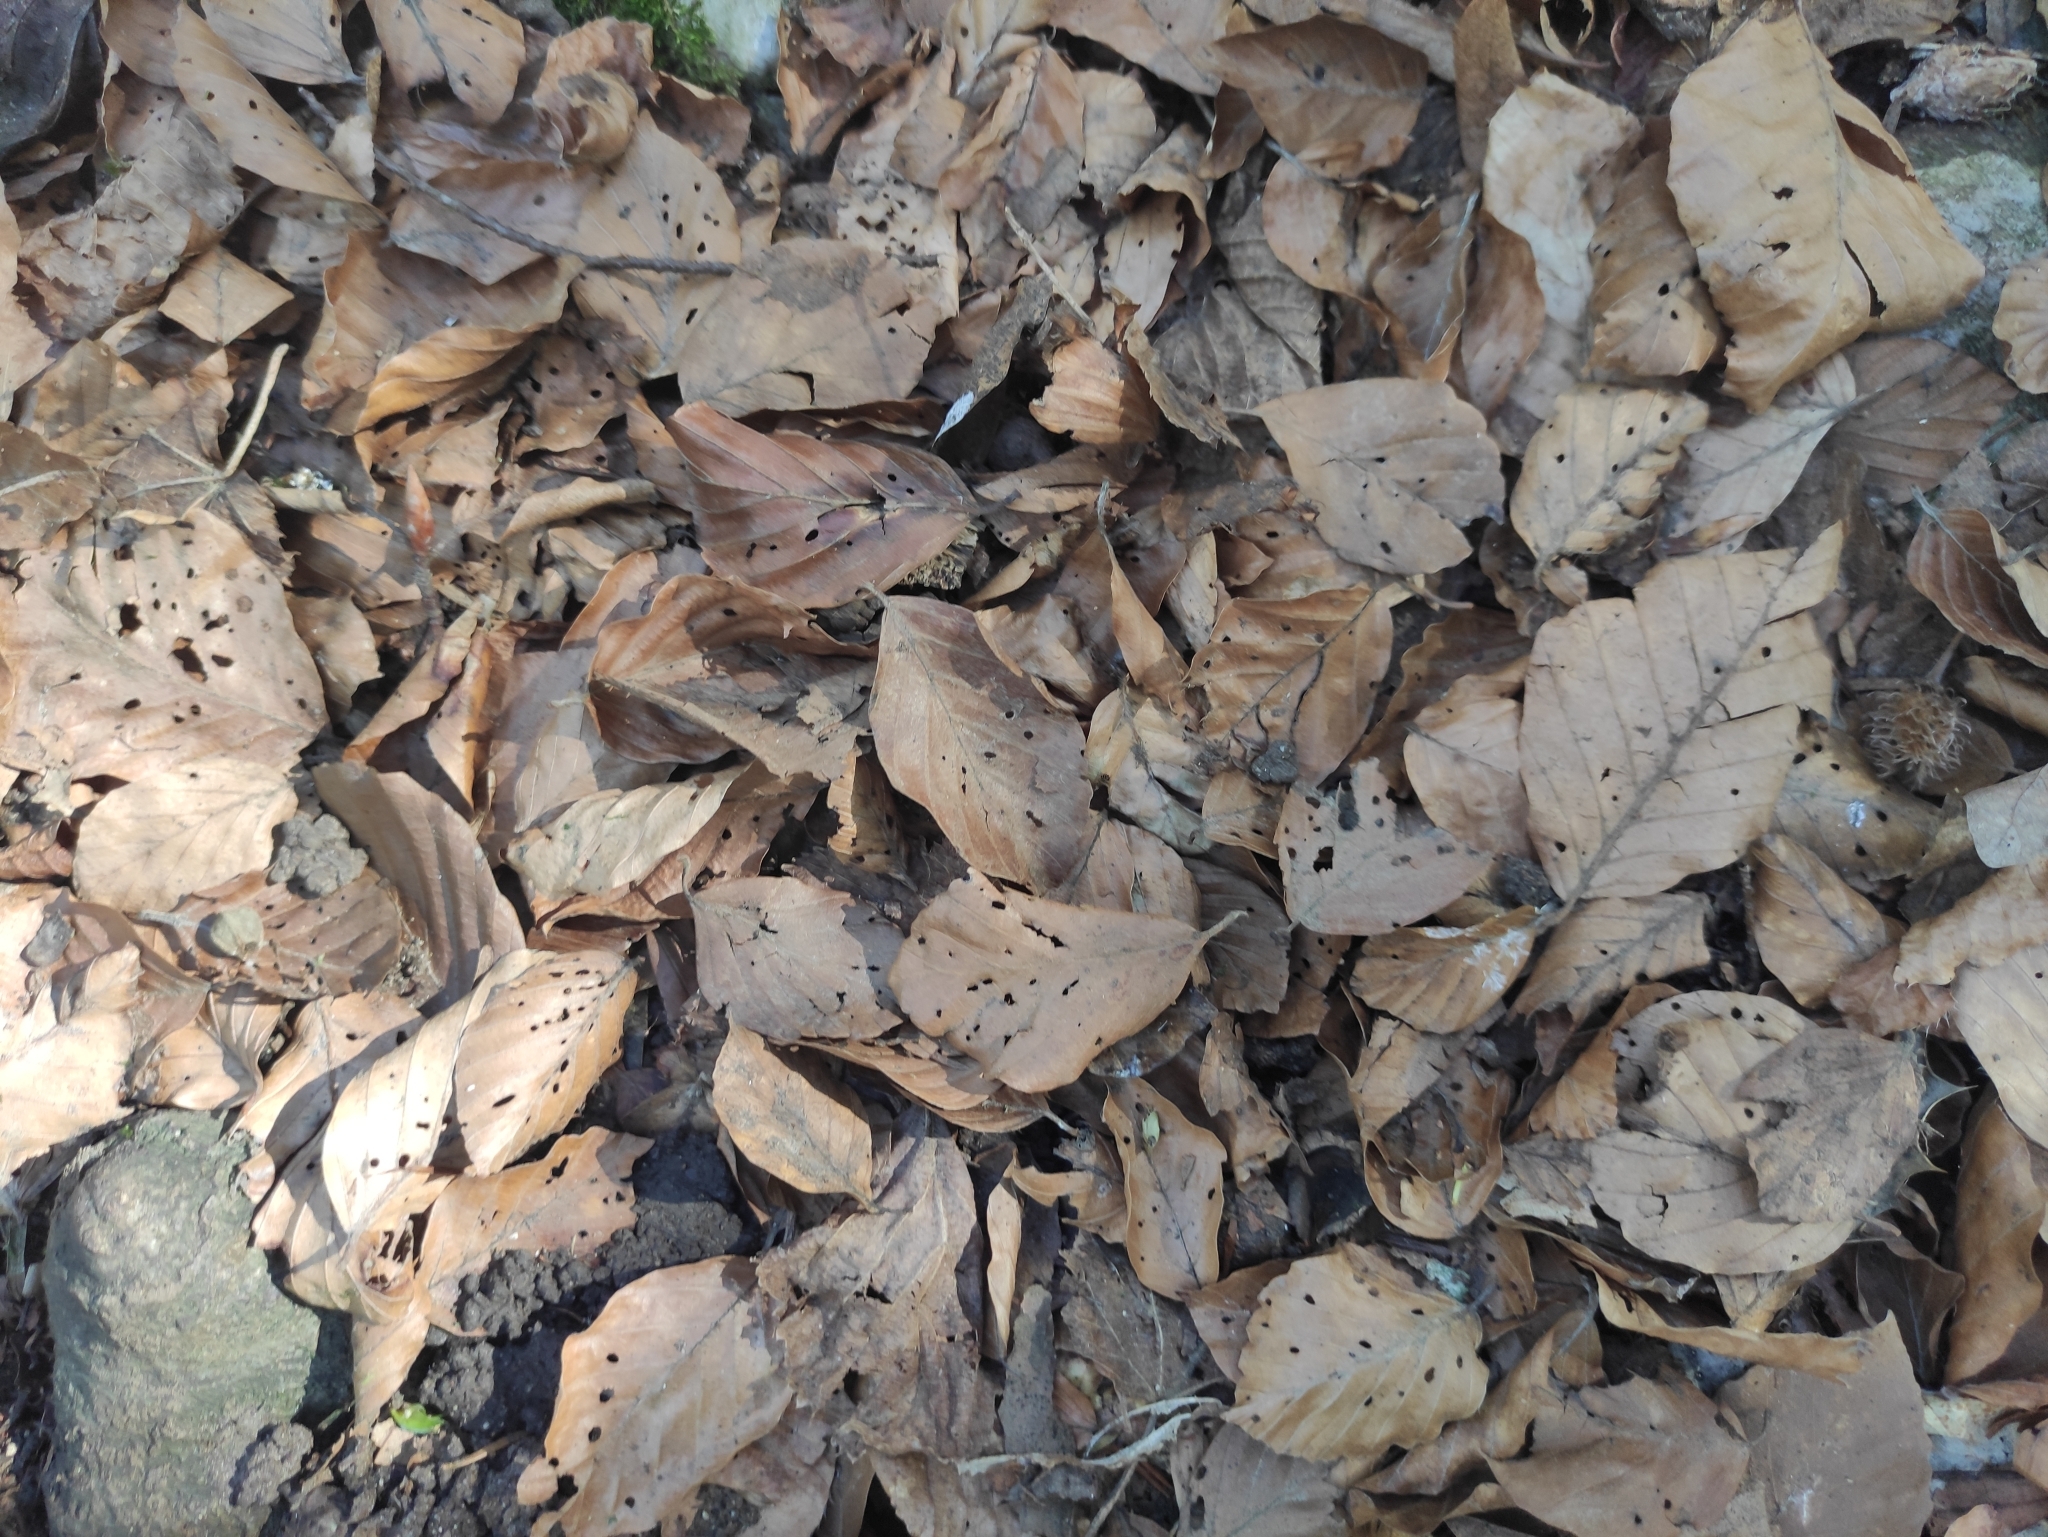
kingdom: Plantae
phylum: Tracheophyta
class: Magnoliopsida
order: Fagales
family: Fagaceae
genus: Fagus
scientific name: Fagus sylvatica
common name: Beech
